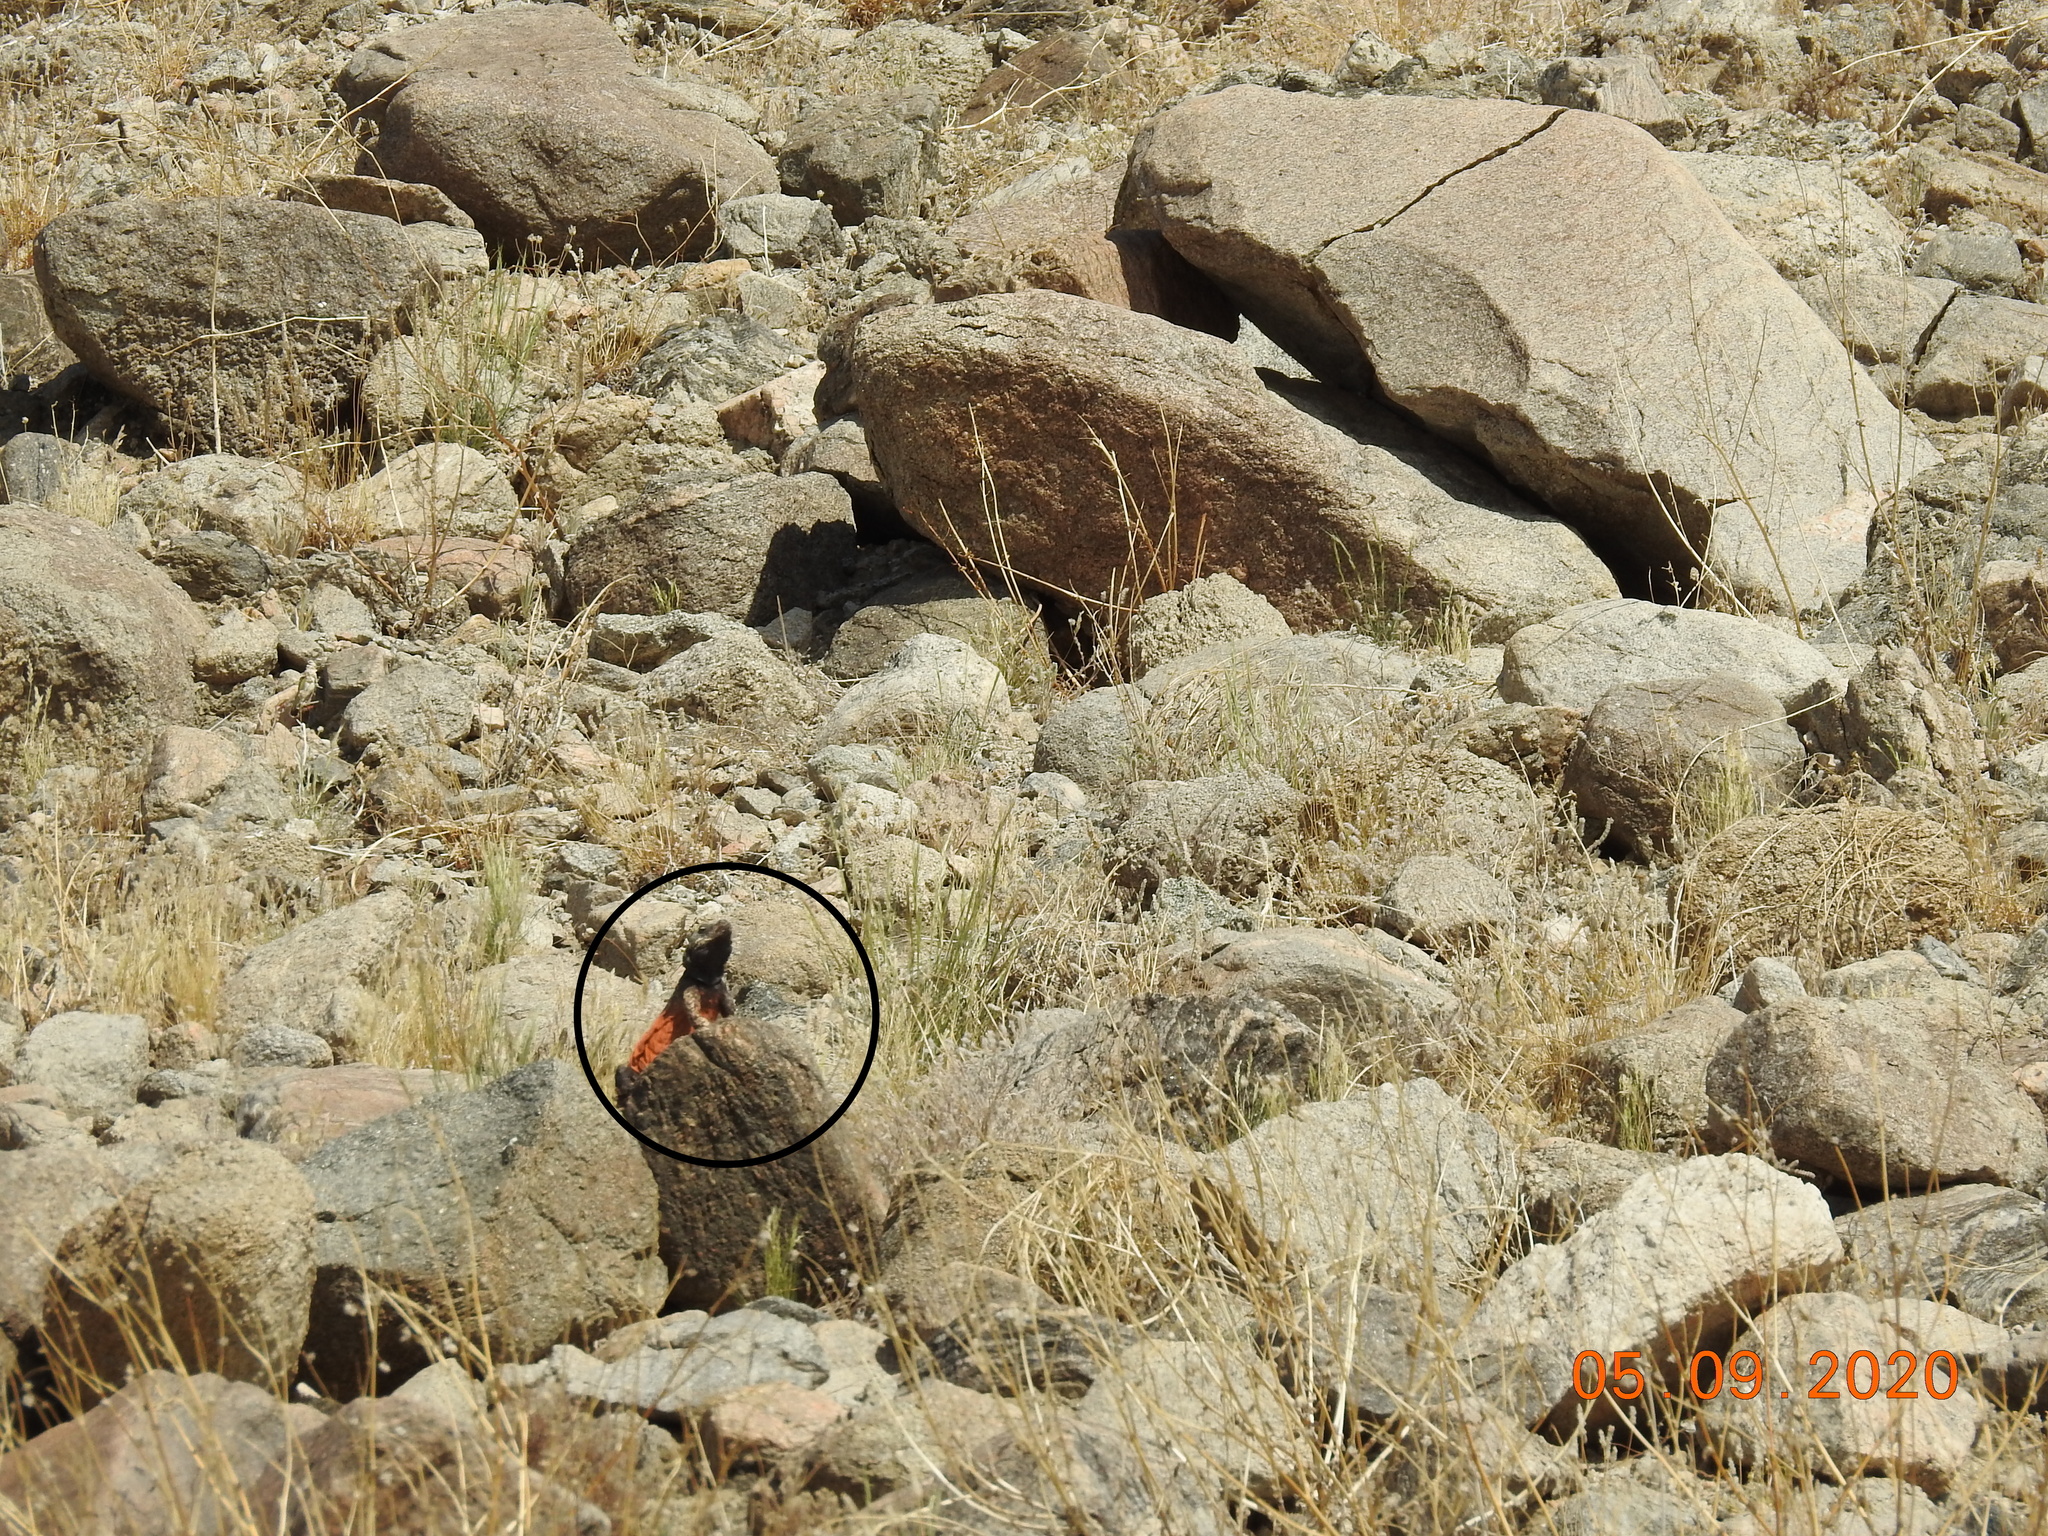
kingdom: Animalia
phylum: Chordata
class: Squamata
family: Iguanidae
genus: Sauromalus
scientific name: Sauromalus ater
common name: Northern chuckwalla
